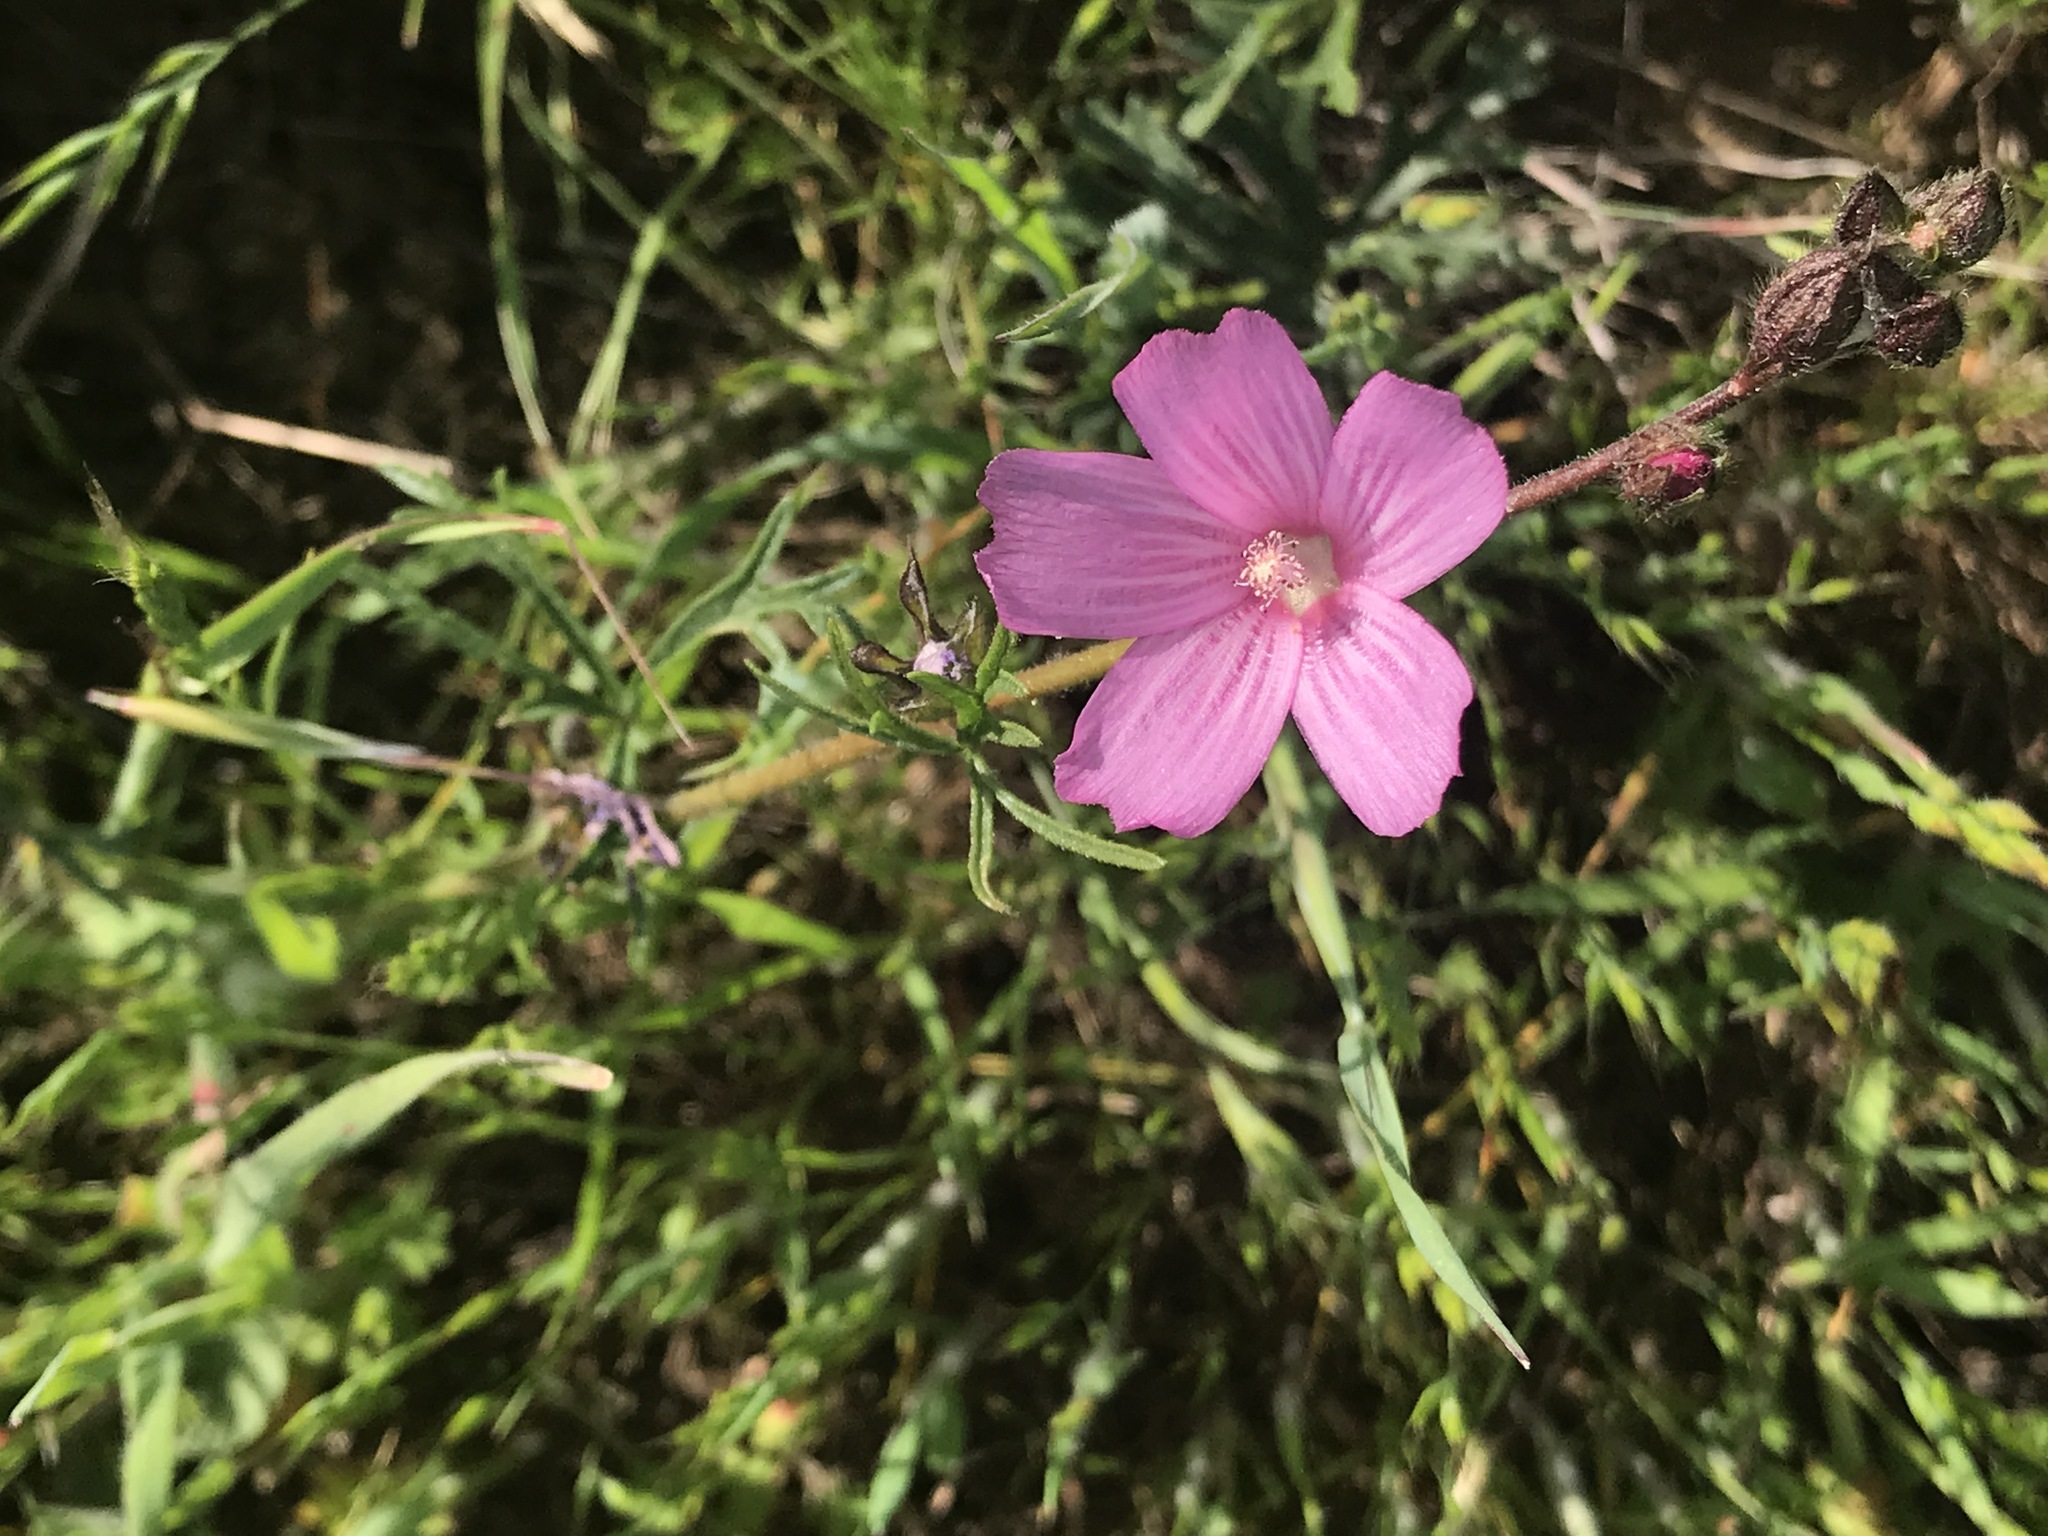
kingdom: Plantae
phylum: Tracheophyta
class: Magnoliopsida
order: Malvales
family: Malvaceae
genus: Sidalcea
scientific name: Sidalcea malviflora
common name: Greek mallow
